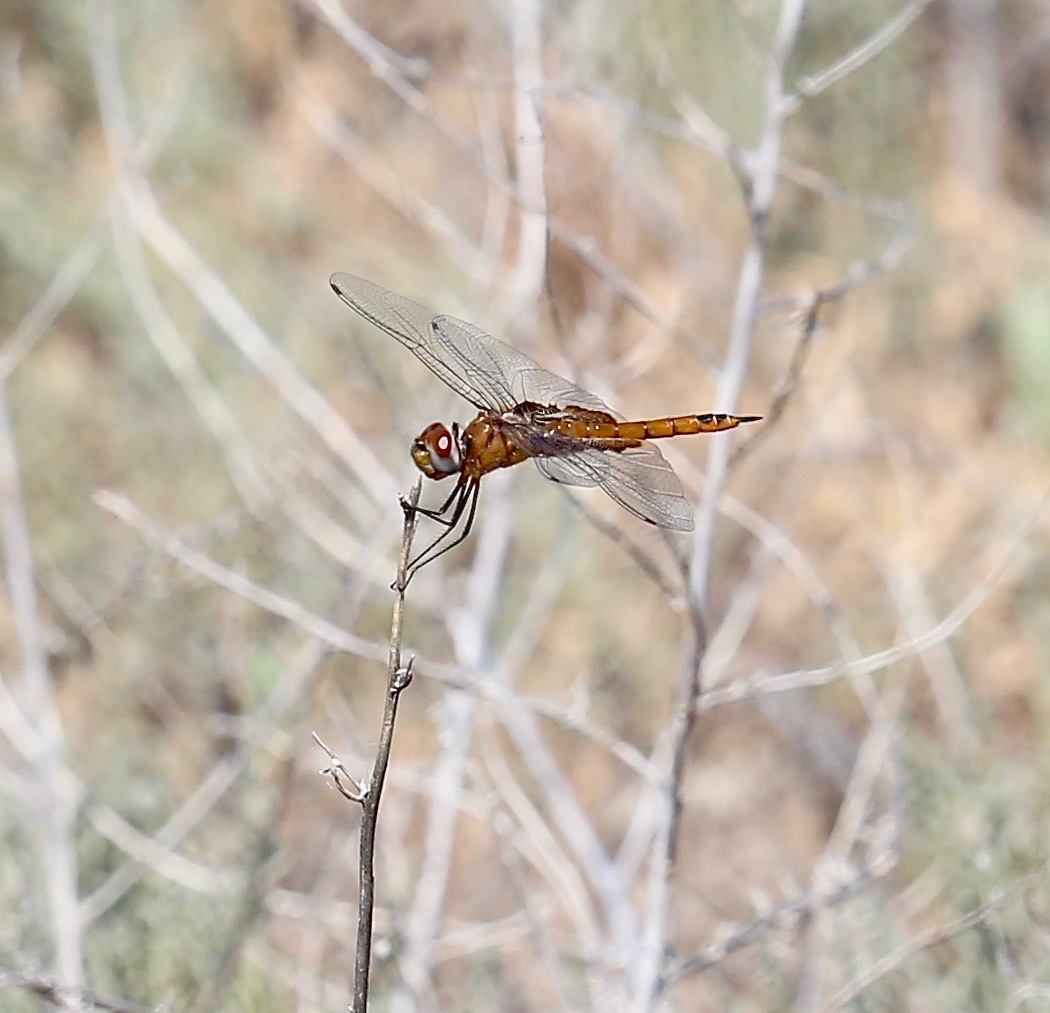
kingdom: Animalia
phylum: Arthropoda
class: Insecta
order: Odonata
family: Libellulidae
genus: Tramea
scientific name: Tramea onusta
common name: Red saddlebags
